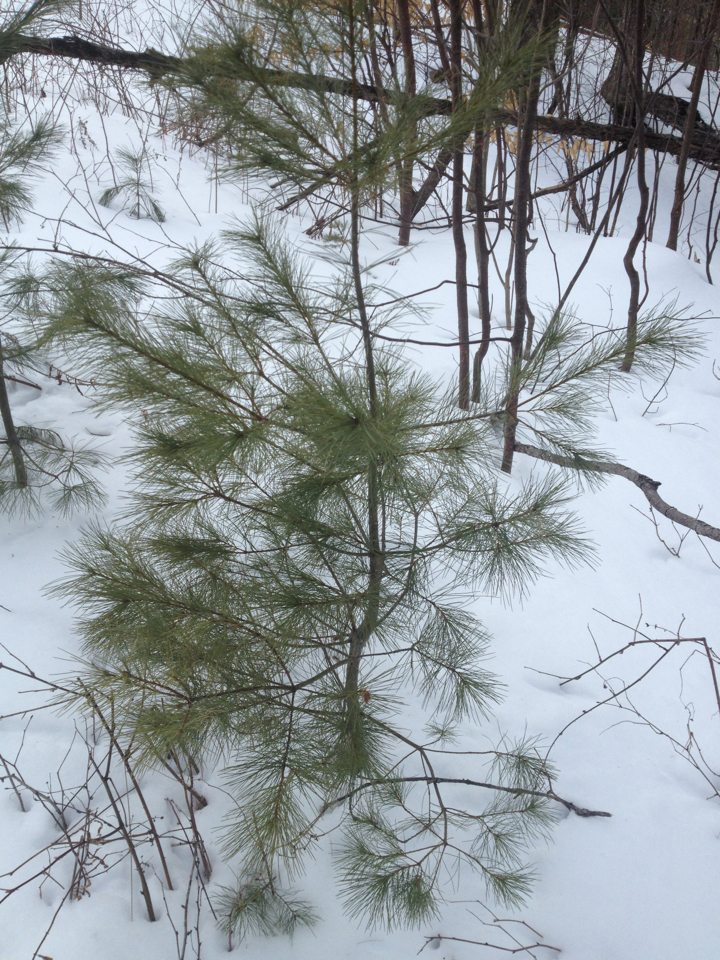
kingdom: Plantae
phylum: Tracheophyta
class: Pinopsida
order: Pinales
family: Pinaceae
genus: Pinus
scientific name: Pinus strobus
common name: Weymouth pine
